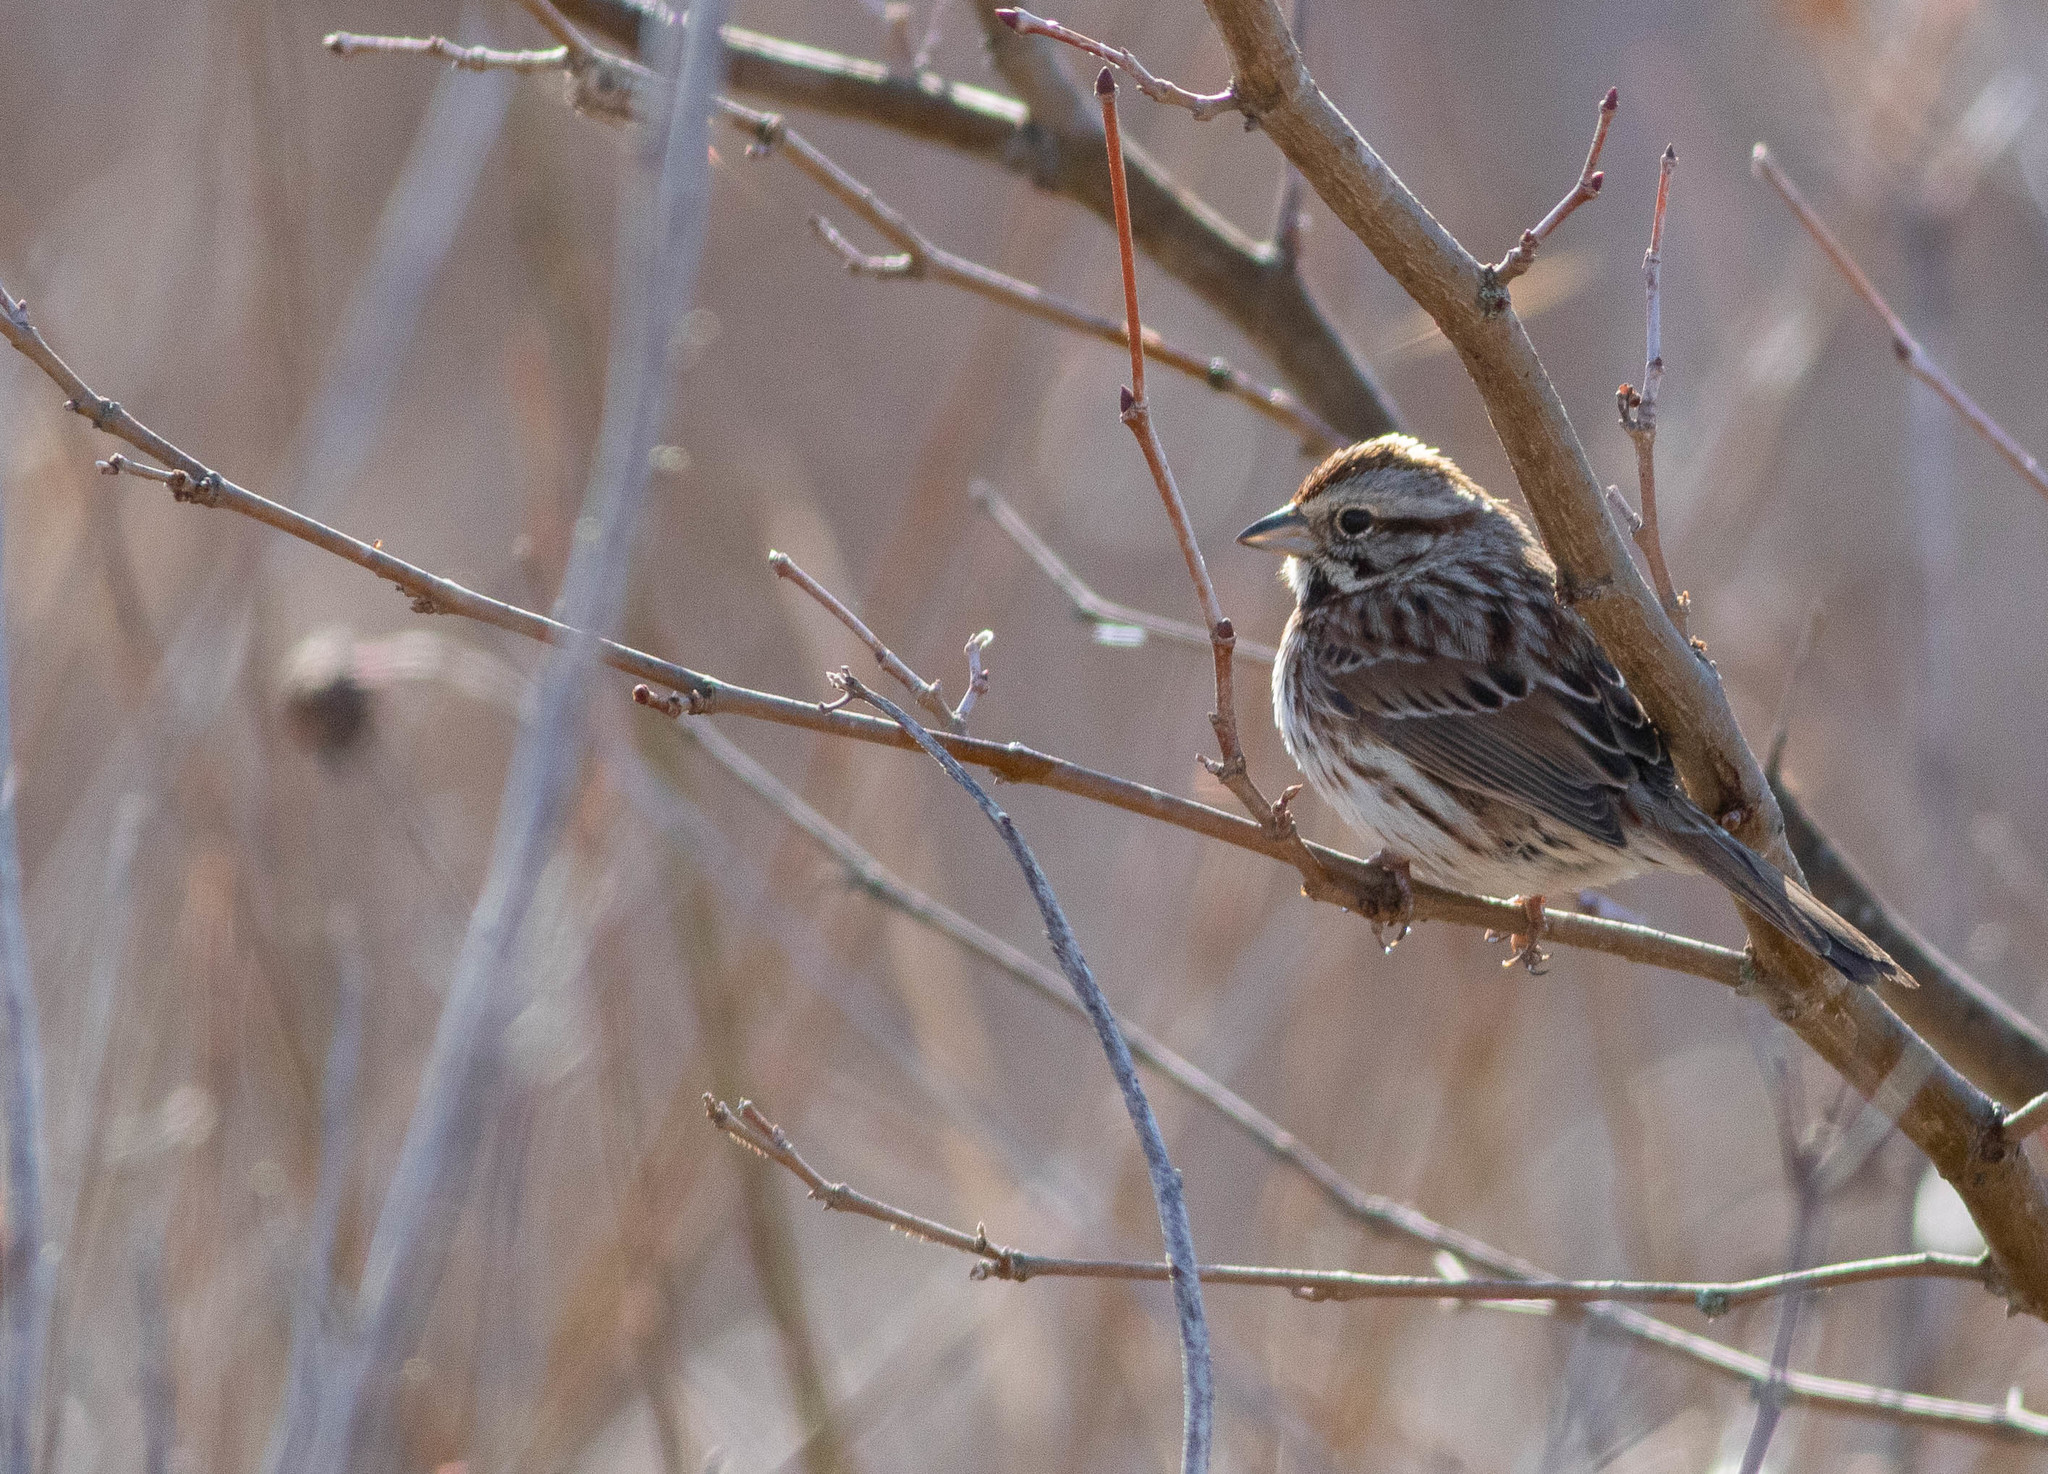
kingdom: Animalia
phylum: Chordata
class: Aves
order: Passeriformes
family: Passerellidae
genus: Melospiza
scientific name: Melospiza melodia
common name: Song sparrow
